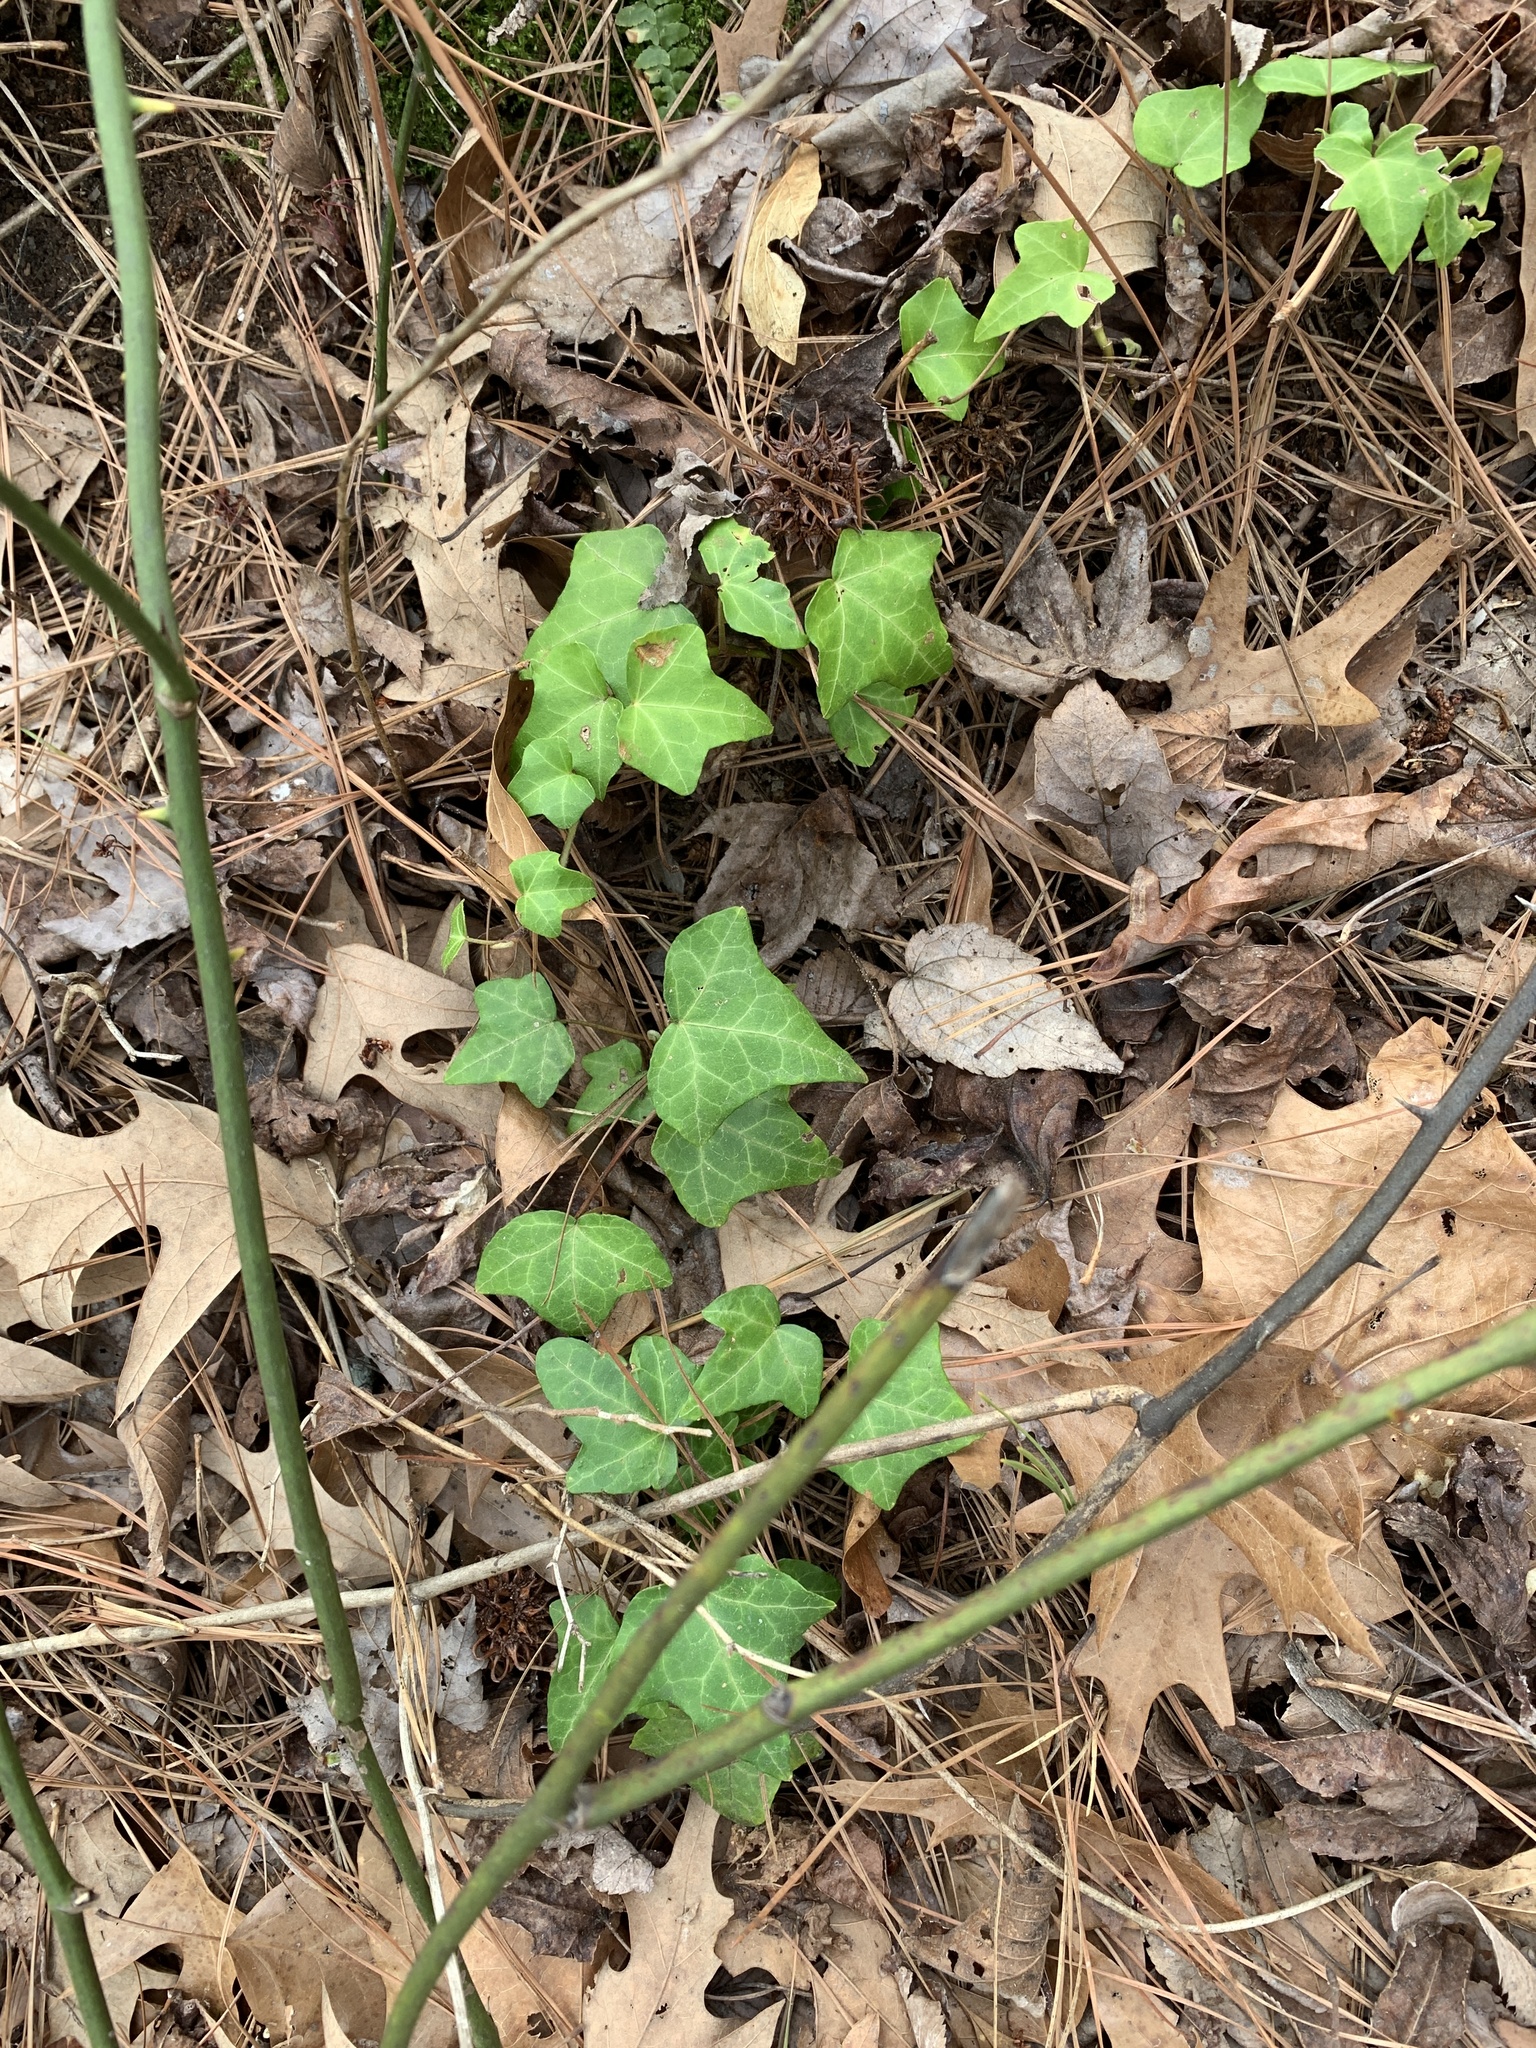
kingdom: Plantae
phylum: Tracheophyta
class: Magnoliopsida
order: Apiales
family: Araliaceae
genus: Hedera
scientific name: Hedera helix
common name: Ivy
